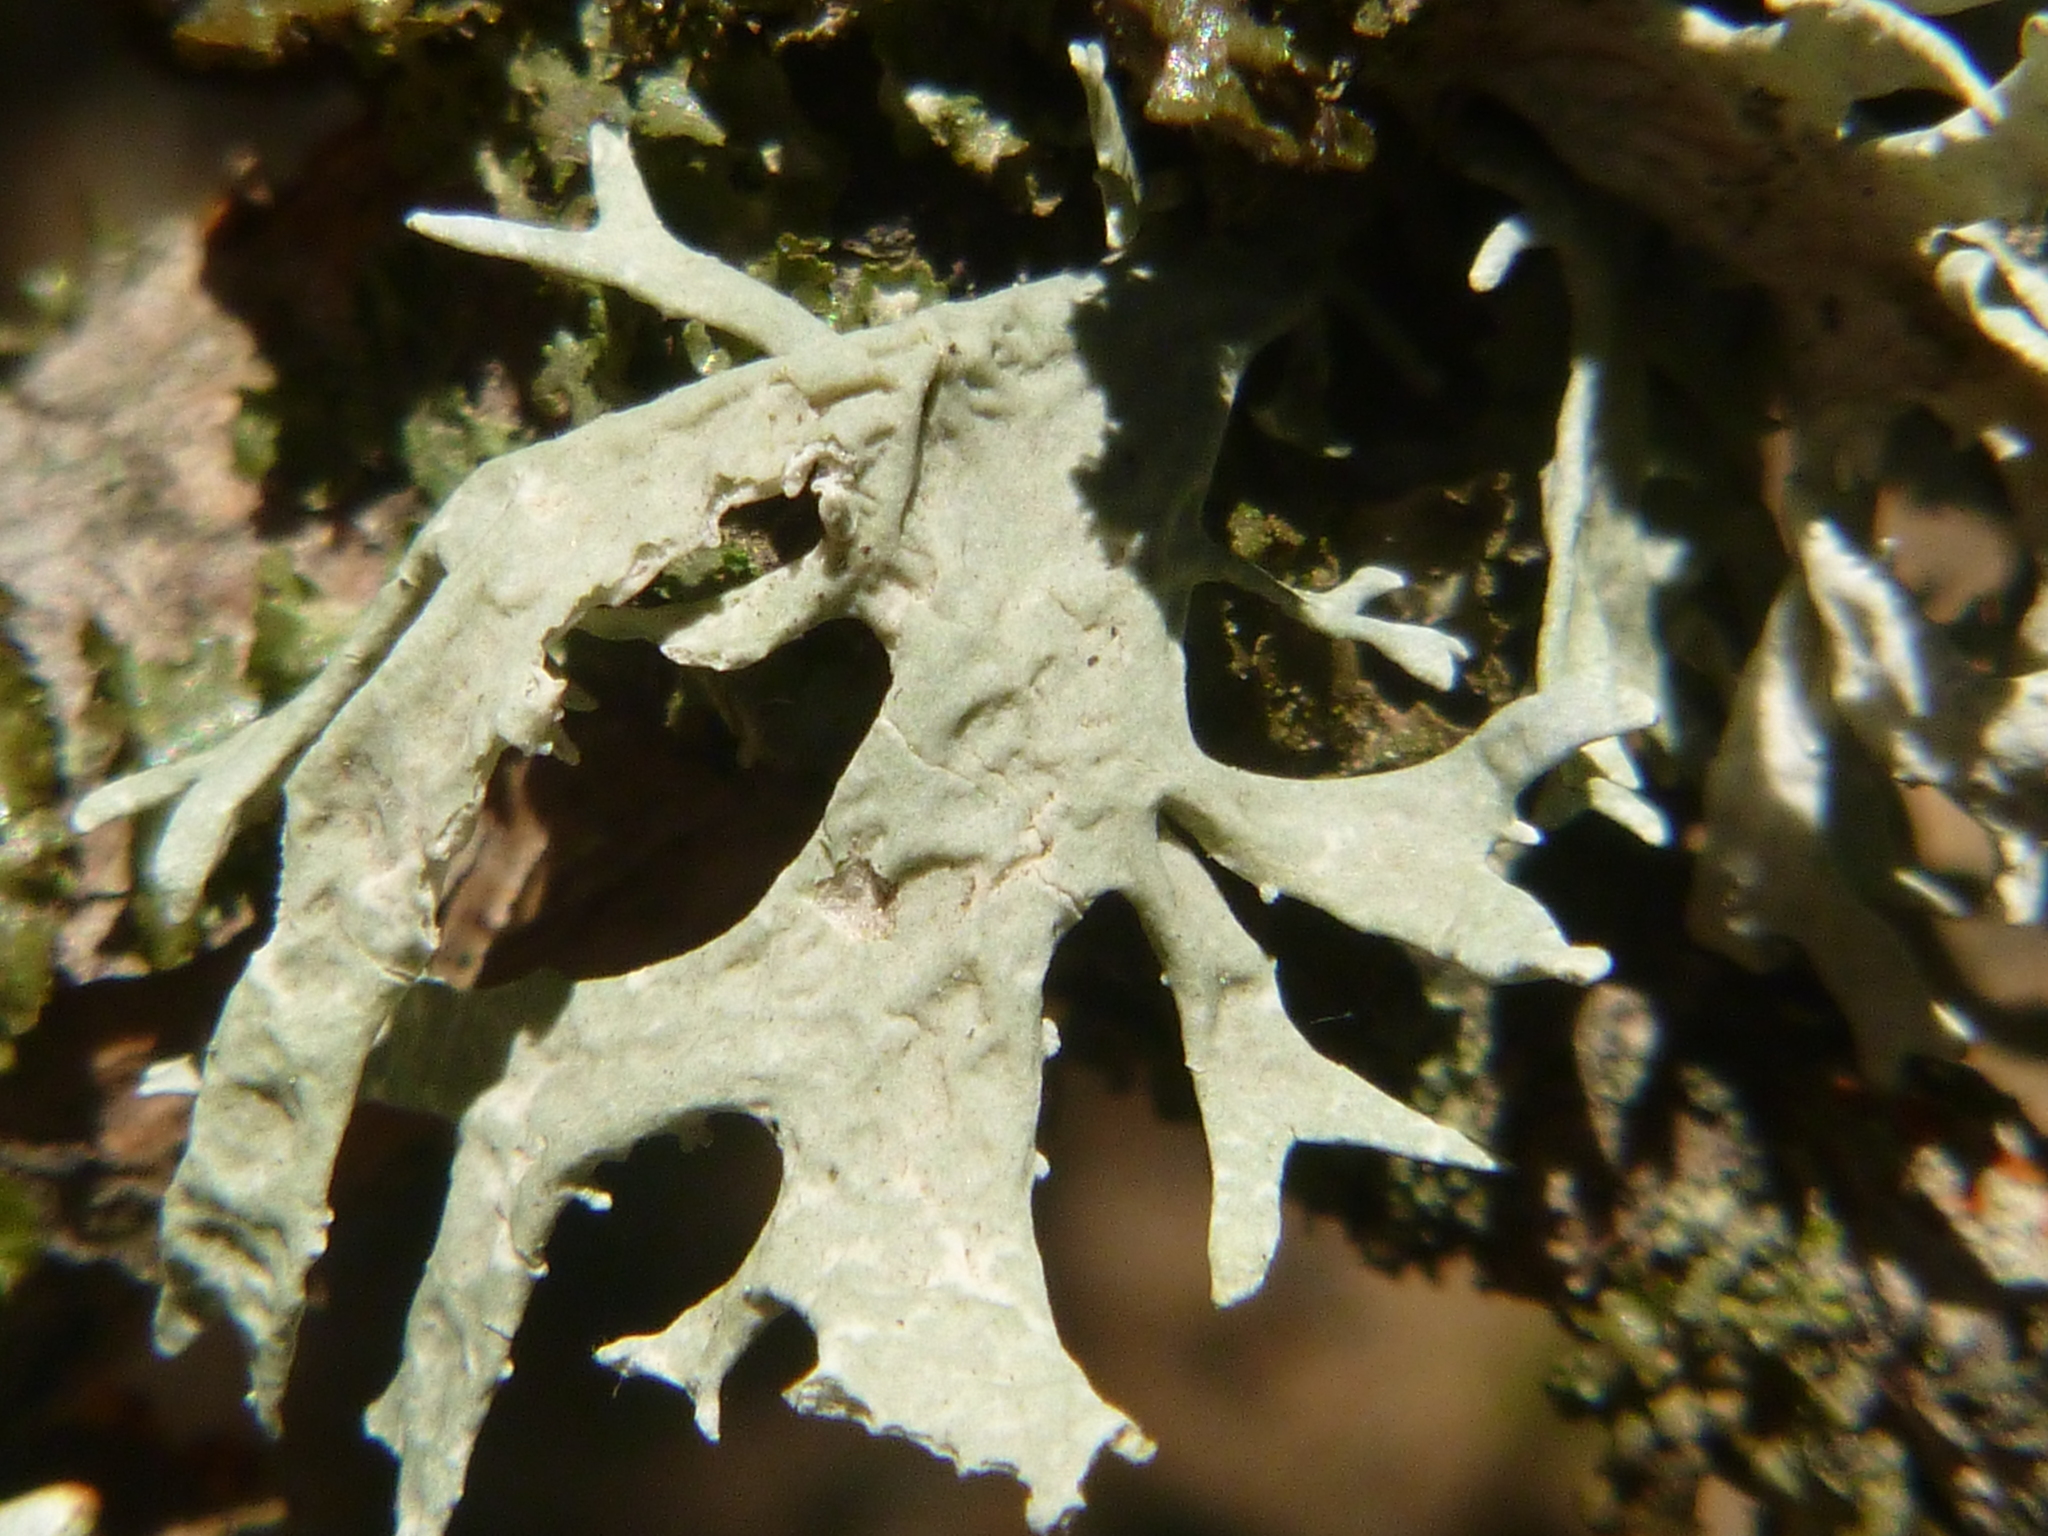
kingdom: Fungi
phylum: Ascomycota
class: Lecanoromycetes
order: Lecanorales
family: Parmeliaceae
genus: Evernia
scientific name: Evernia prunastri
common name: Oak moss
